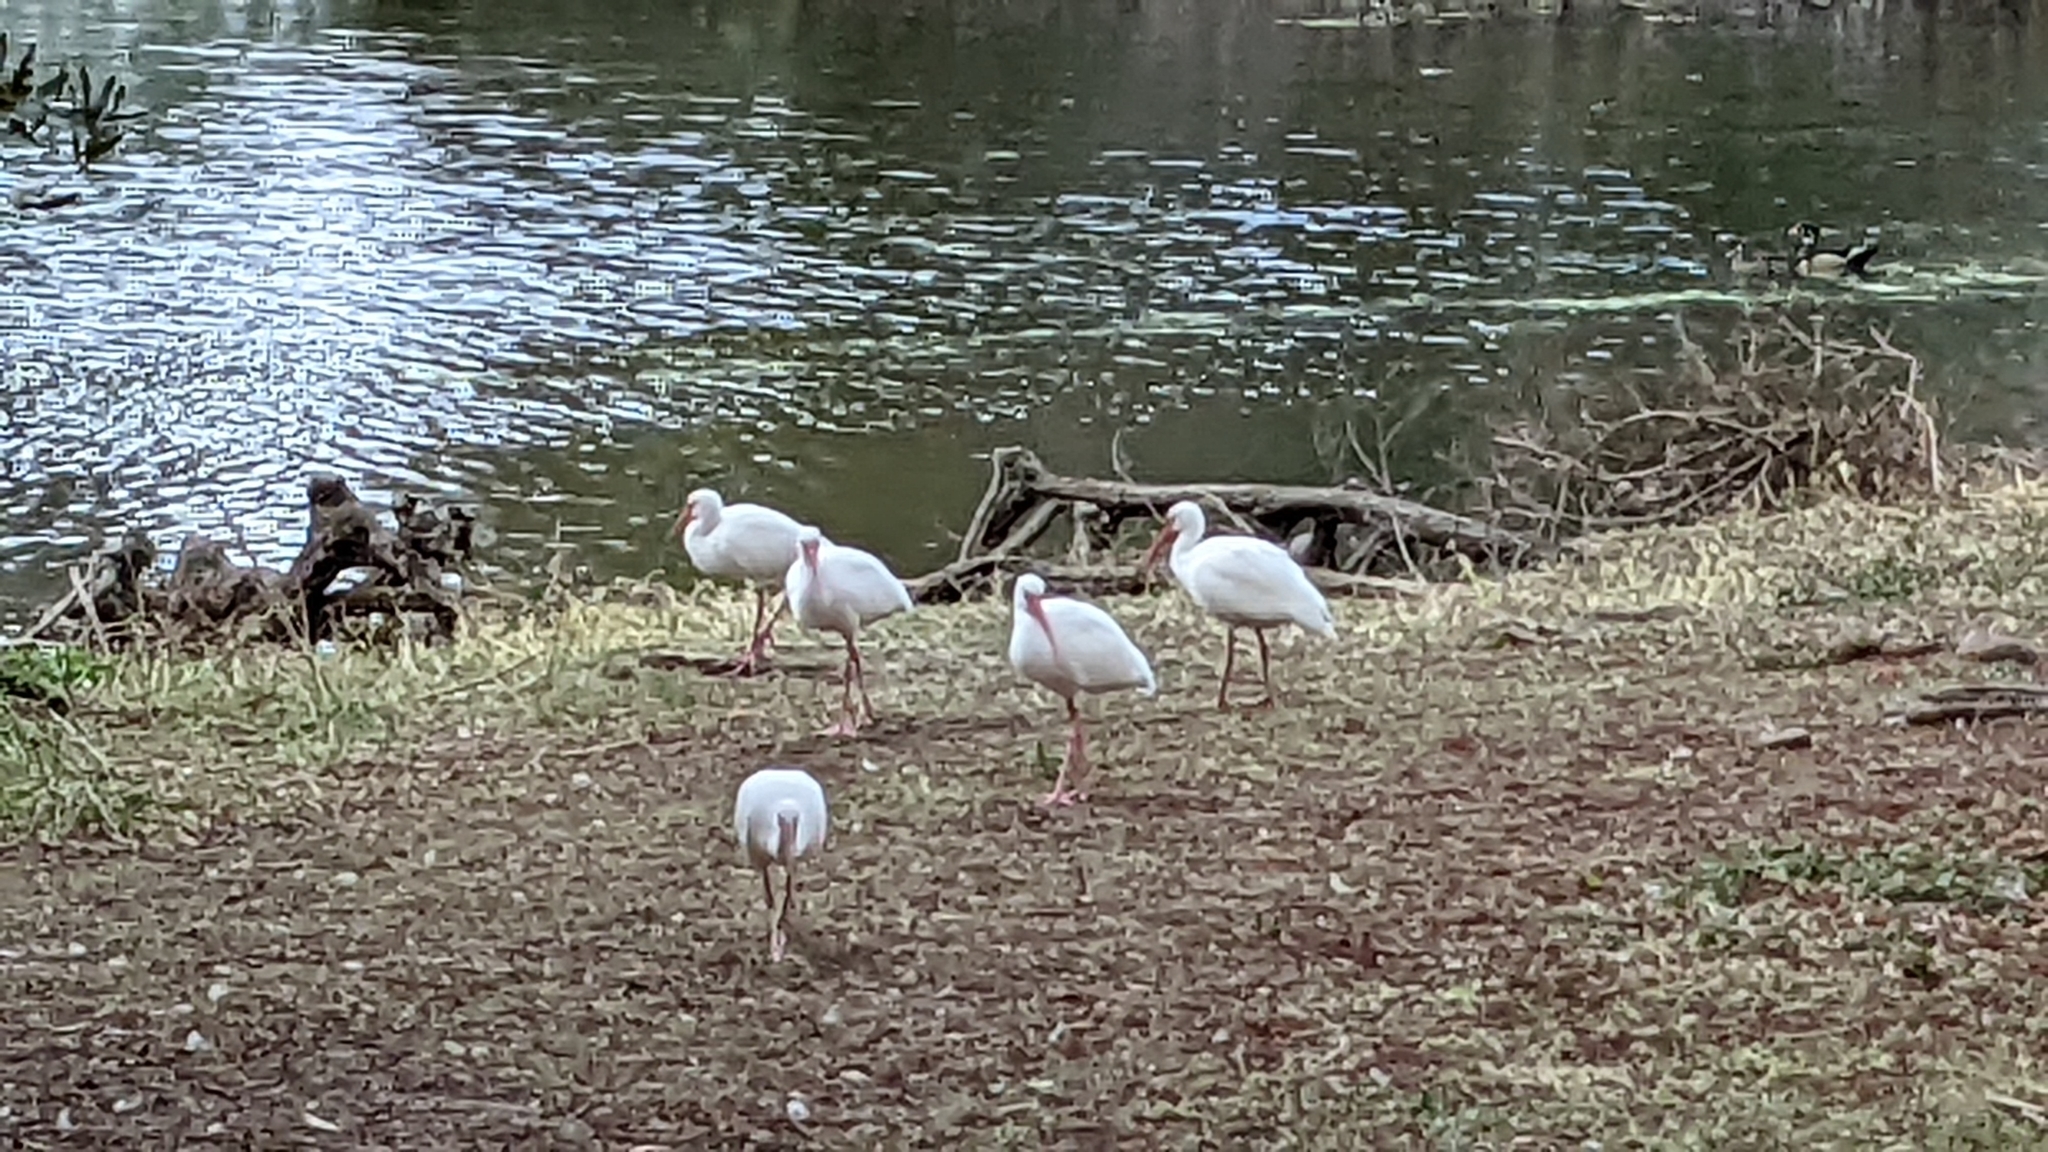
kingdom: Animalia
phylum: Chordata
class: Aves
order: Pelecaniformes
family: Threskiornithidae
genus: Eudocimus
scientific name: Eudocimus albus
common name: White ibis
